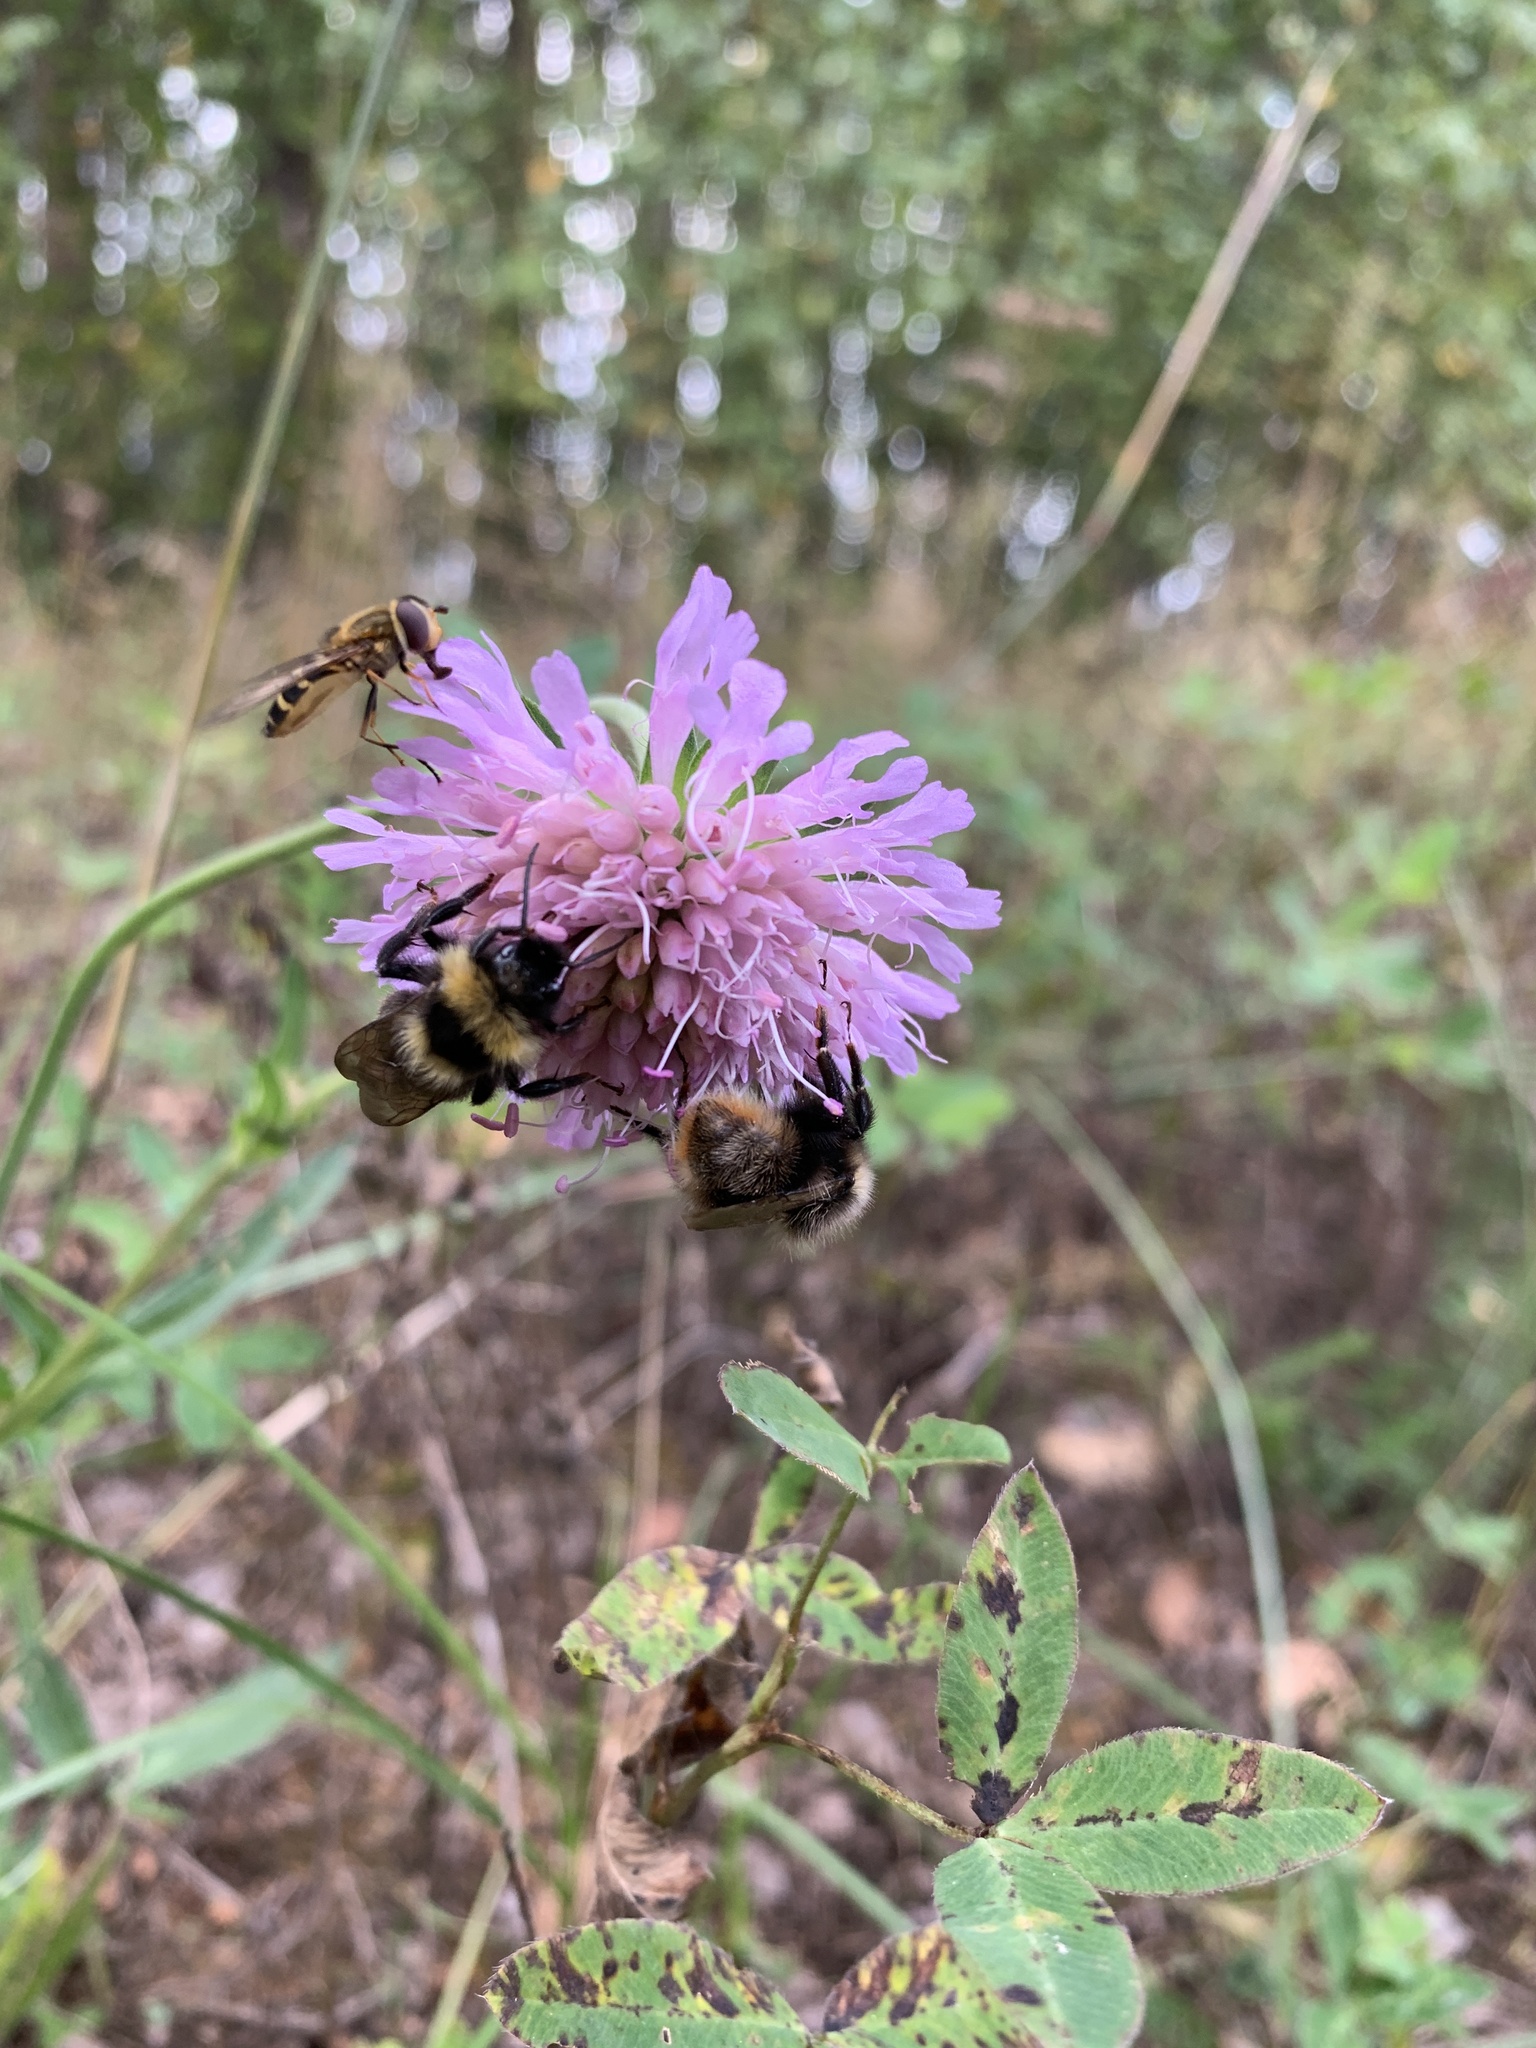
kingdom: Animalia
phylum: Arthropoda
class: Insecta
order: Diptera
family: Syrphidae
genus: Syrphus
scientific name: Syrphus
